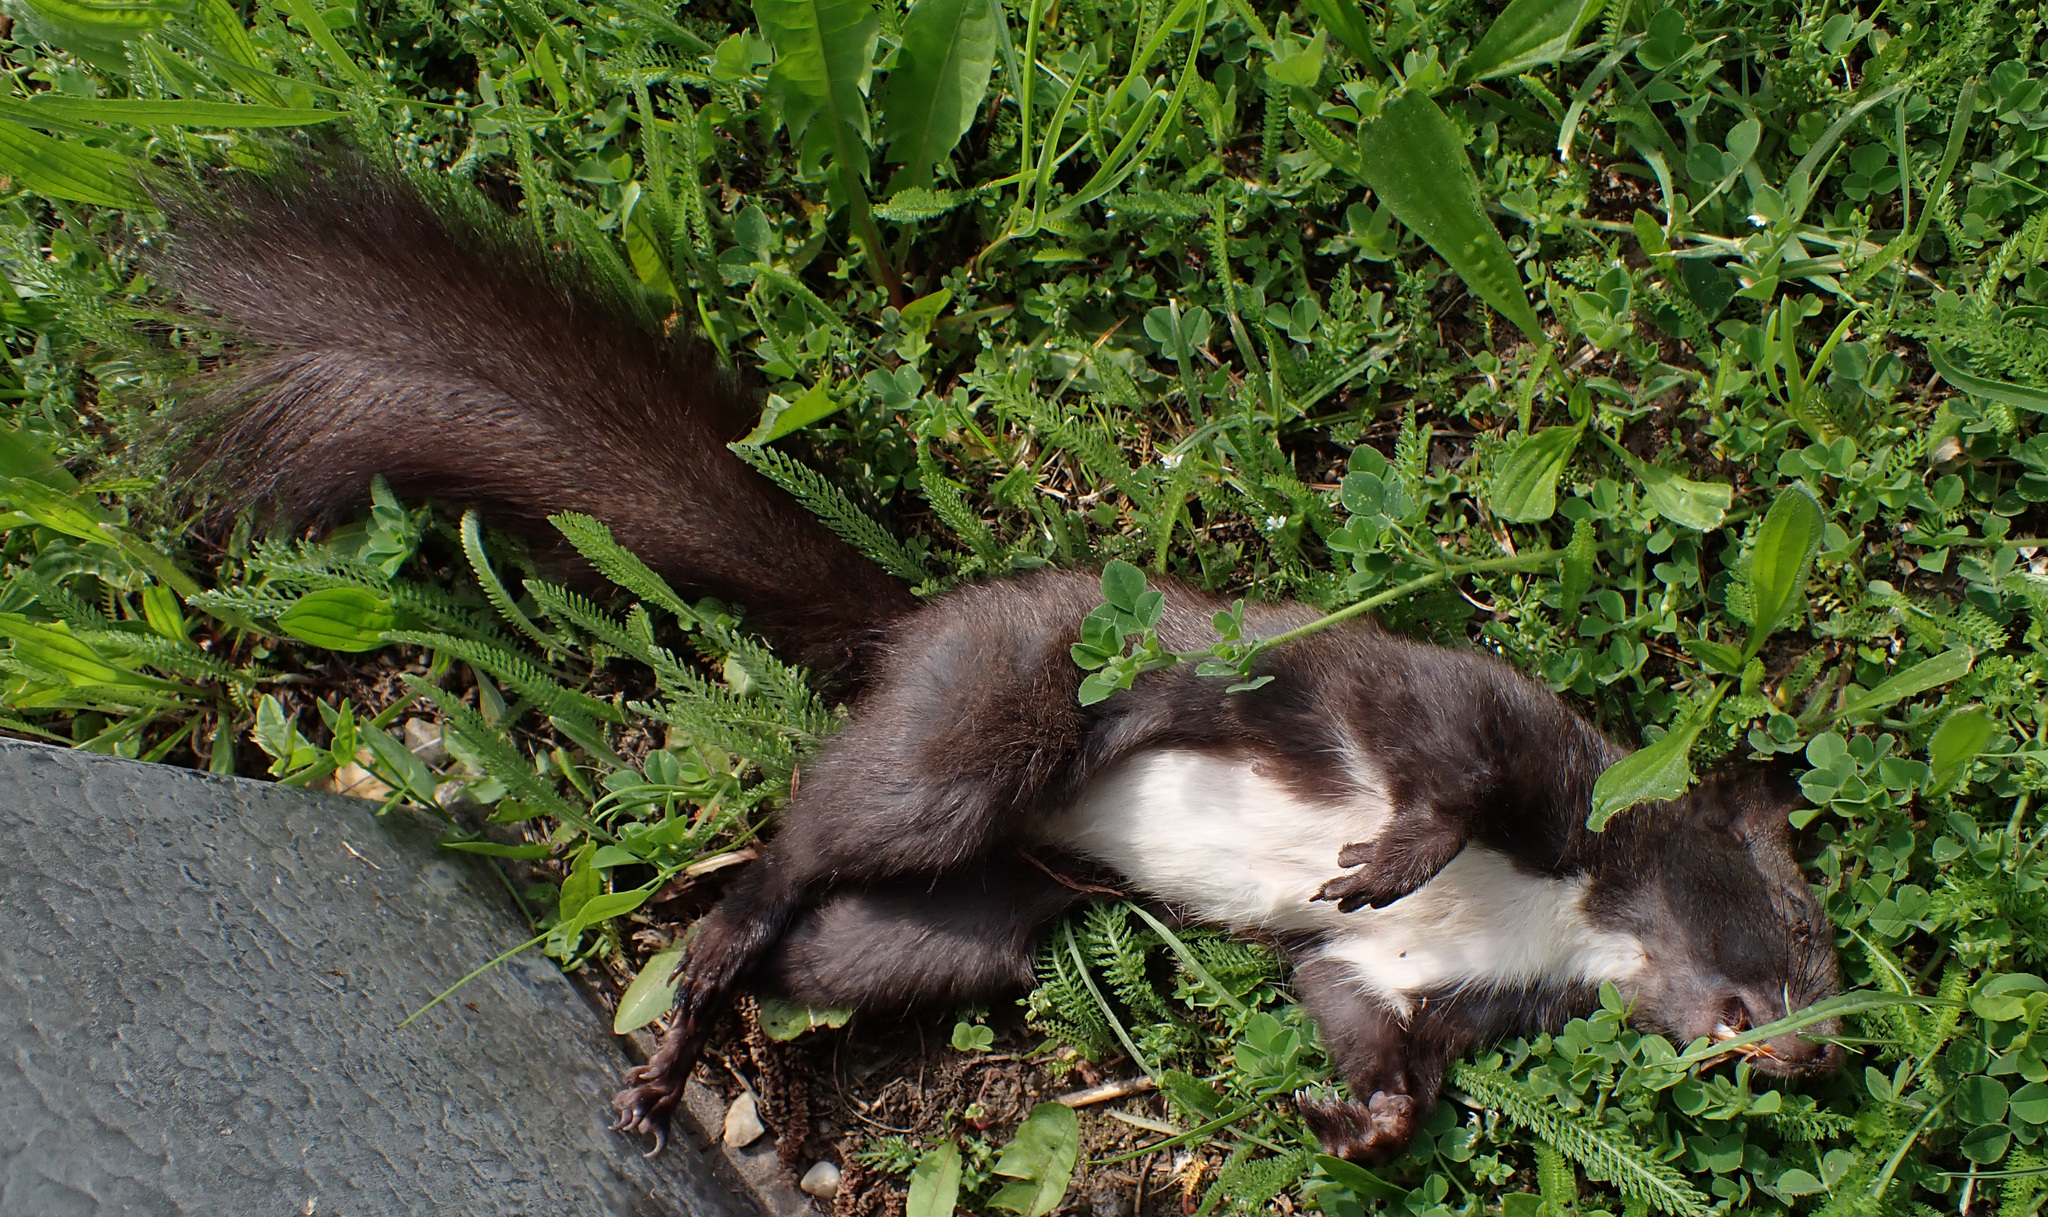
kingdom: Animalia
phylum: Chordata
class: Mammalia
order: Rodentia
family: Sciuridae
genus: Sciurus
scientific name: Sciurus vulgaris
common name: Eurasian red squirrel
